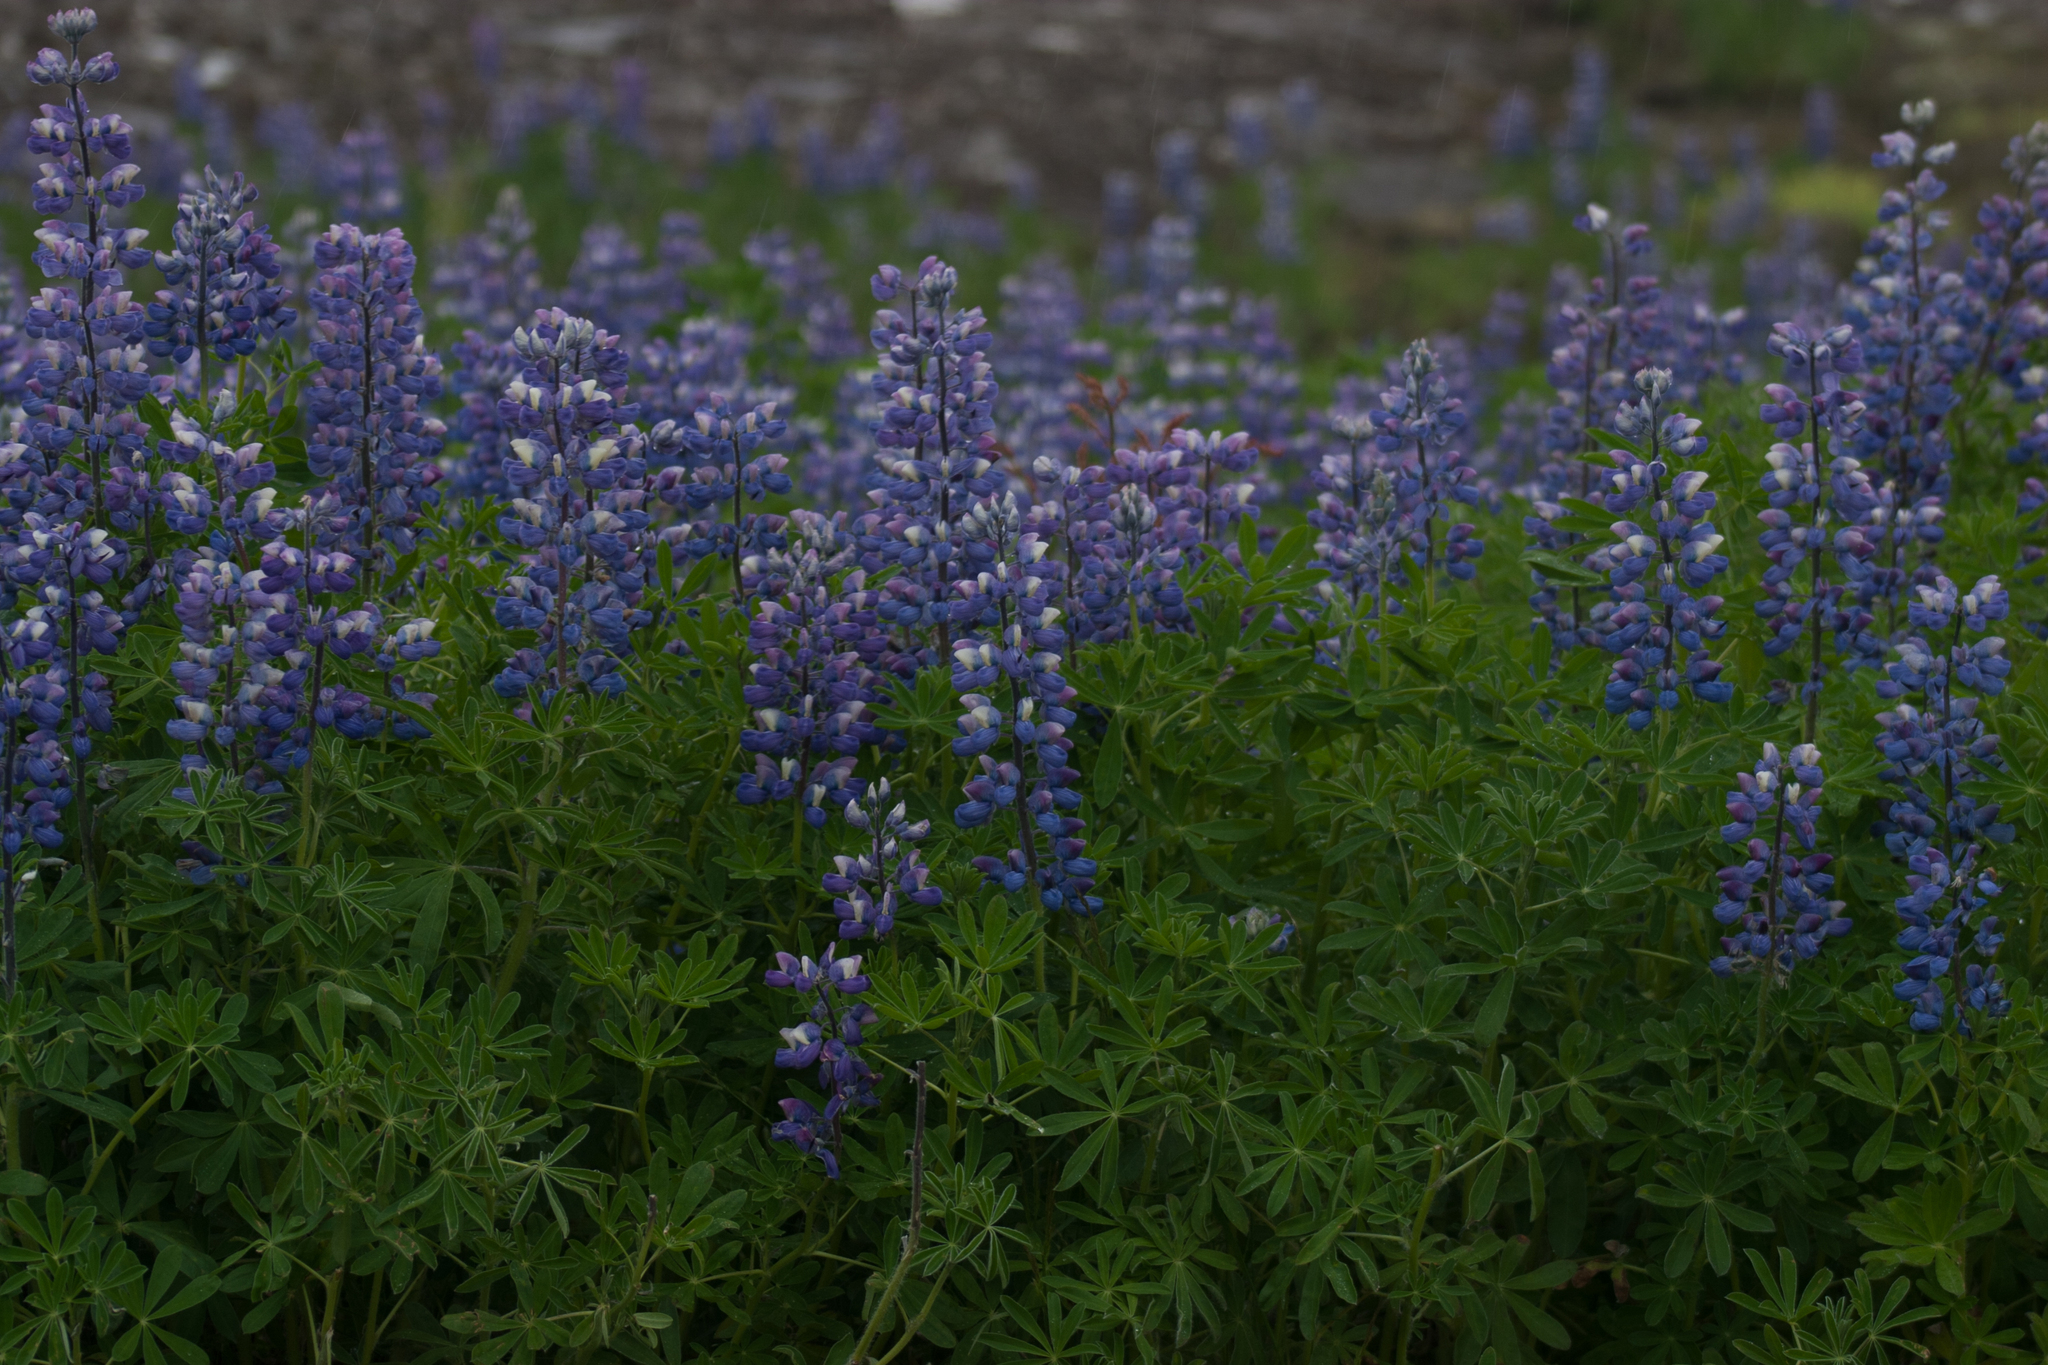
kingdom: Plantae
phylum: Tracheophyta
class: Magnoliopsida
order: Fabales
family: Fabaceae
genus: Lupinus
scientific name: Lupinus nootkatensis
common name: Nootka lupine
